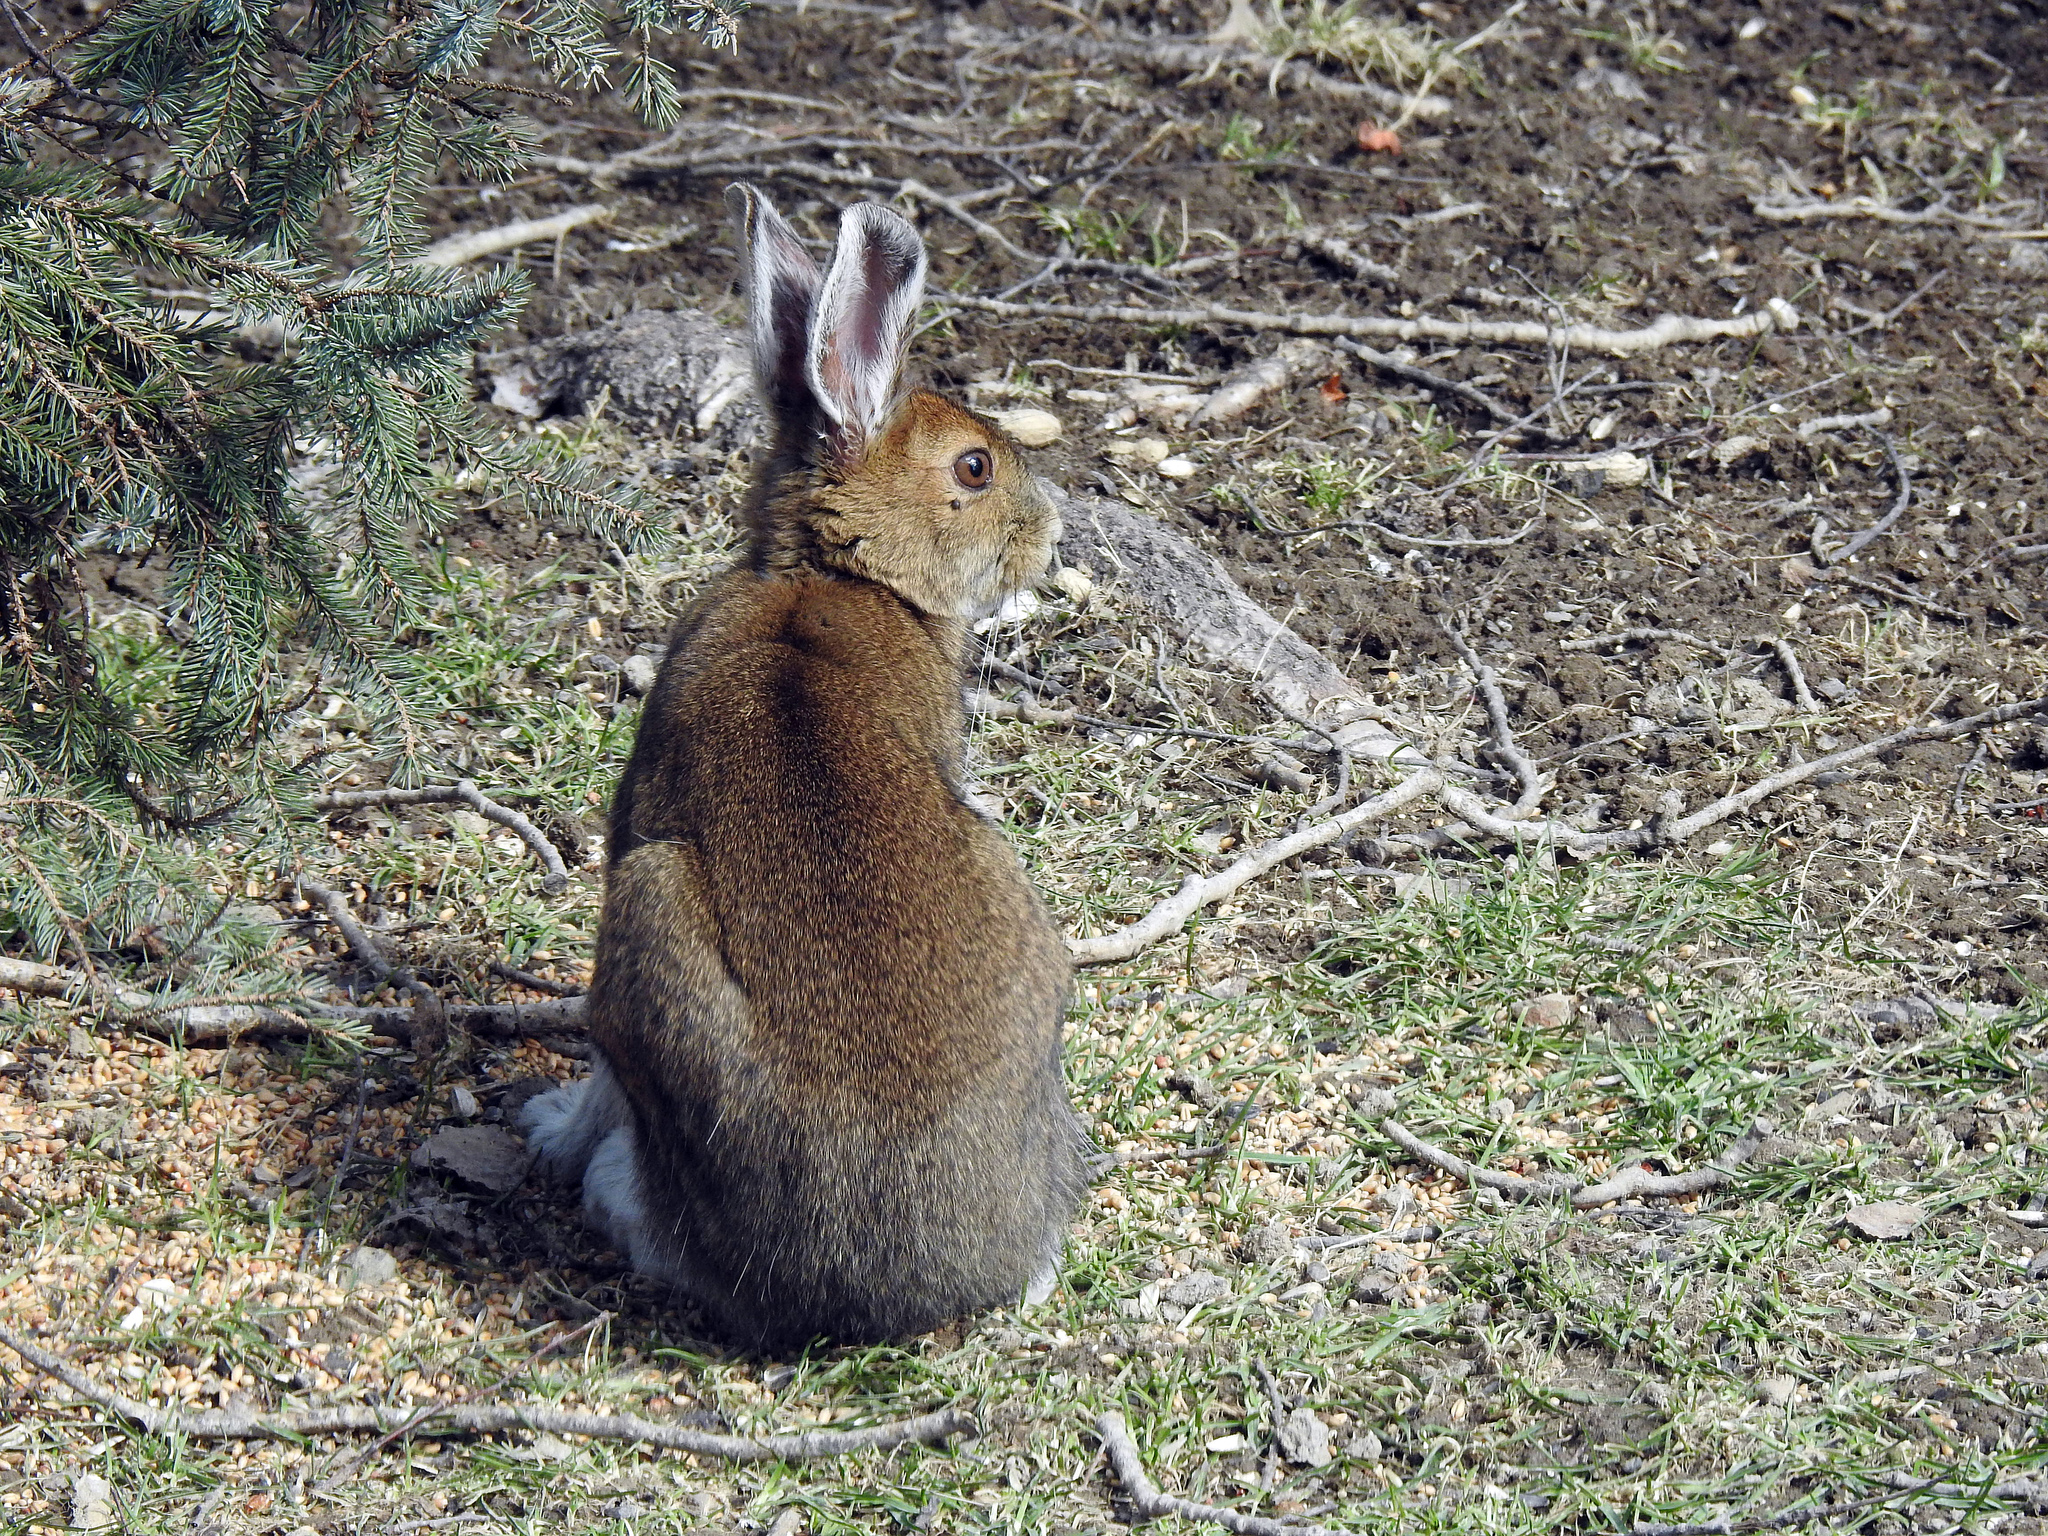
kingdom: Animalia
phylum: Chordata
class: Mammalia
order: Lagomorpha
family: Leporidae
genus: Lepus
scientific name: Lepus americanus
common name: Snowshoe hare
